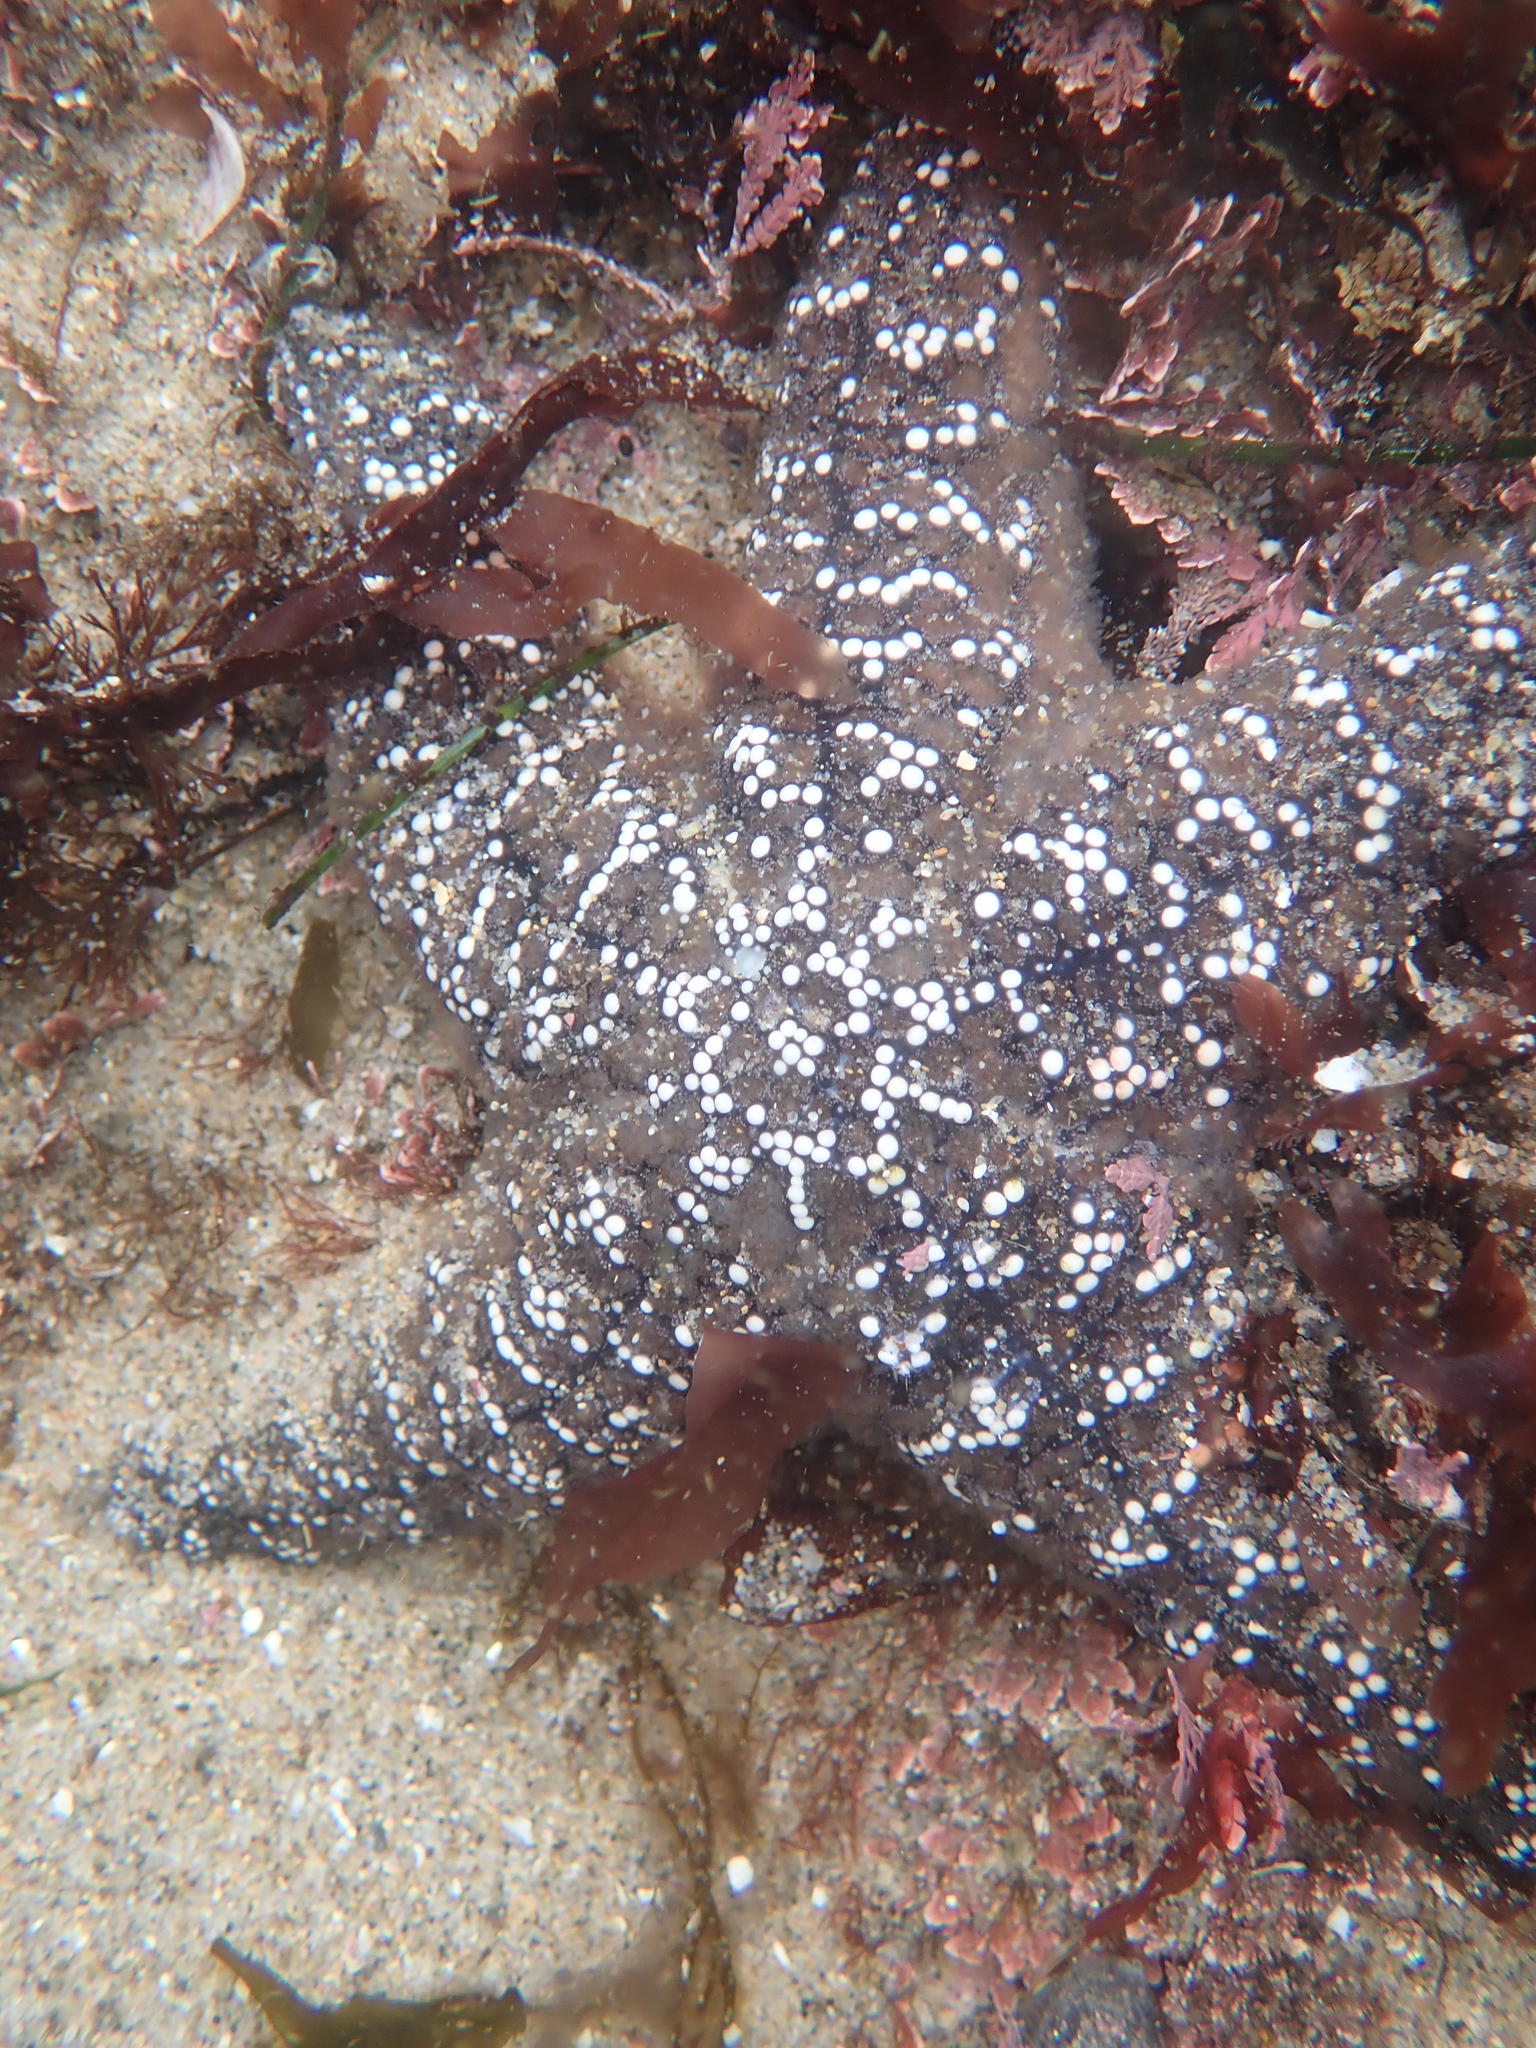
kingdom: Animalia
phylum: Echinodermata
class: Asteroidea
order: Forcipulatida
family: Asteriidae
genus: Pisaster
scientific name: Pisaster ochraceus
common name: Ochre stars
